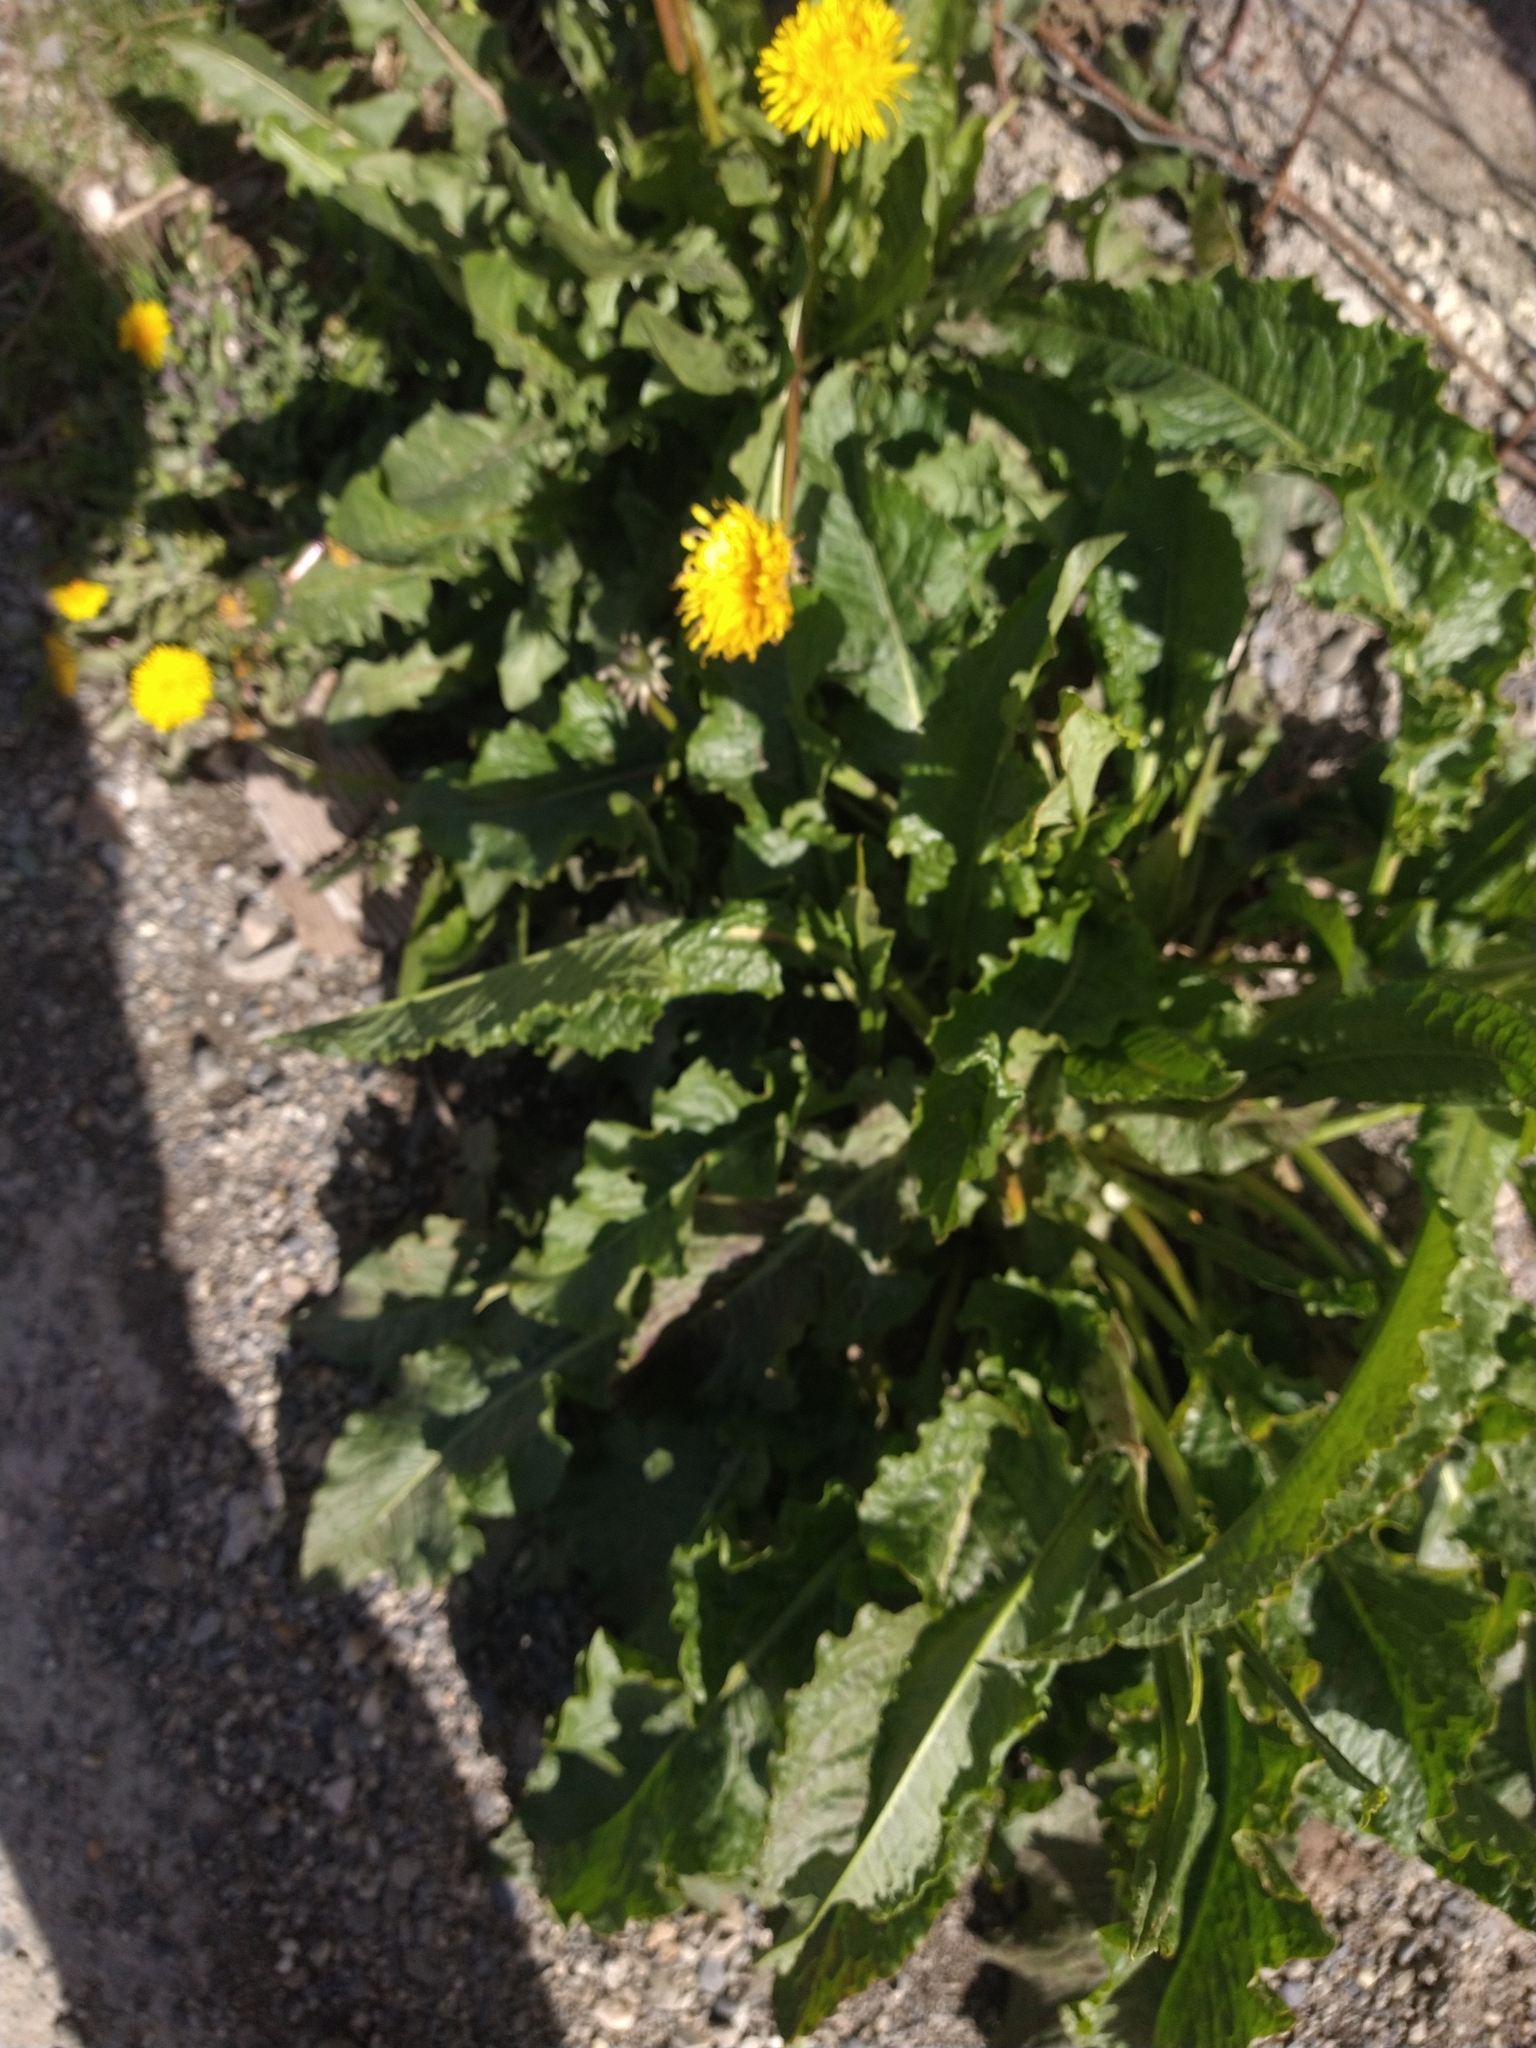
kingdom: Plantae
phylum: Tracheophyta
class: Magnoliopsida
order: Caryophyllales
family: Polygonaceae
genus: Rumex
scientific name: Rumex crispus
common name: Curled dock
